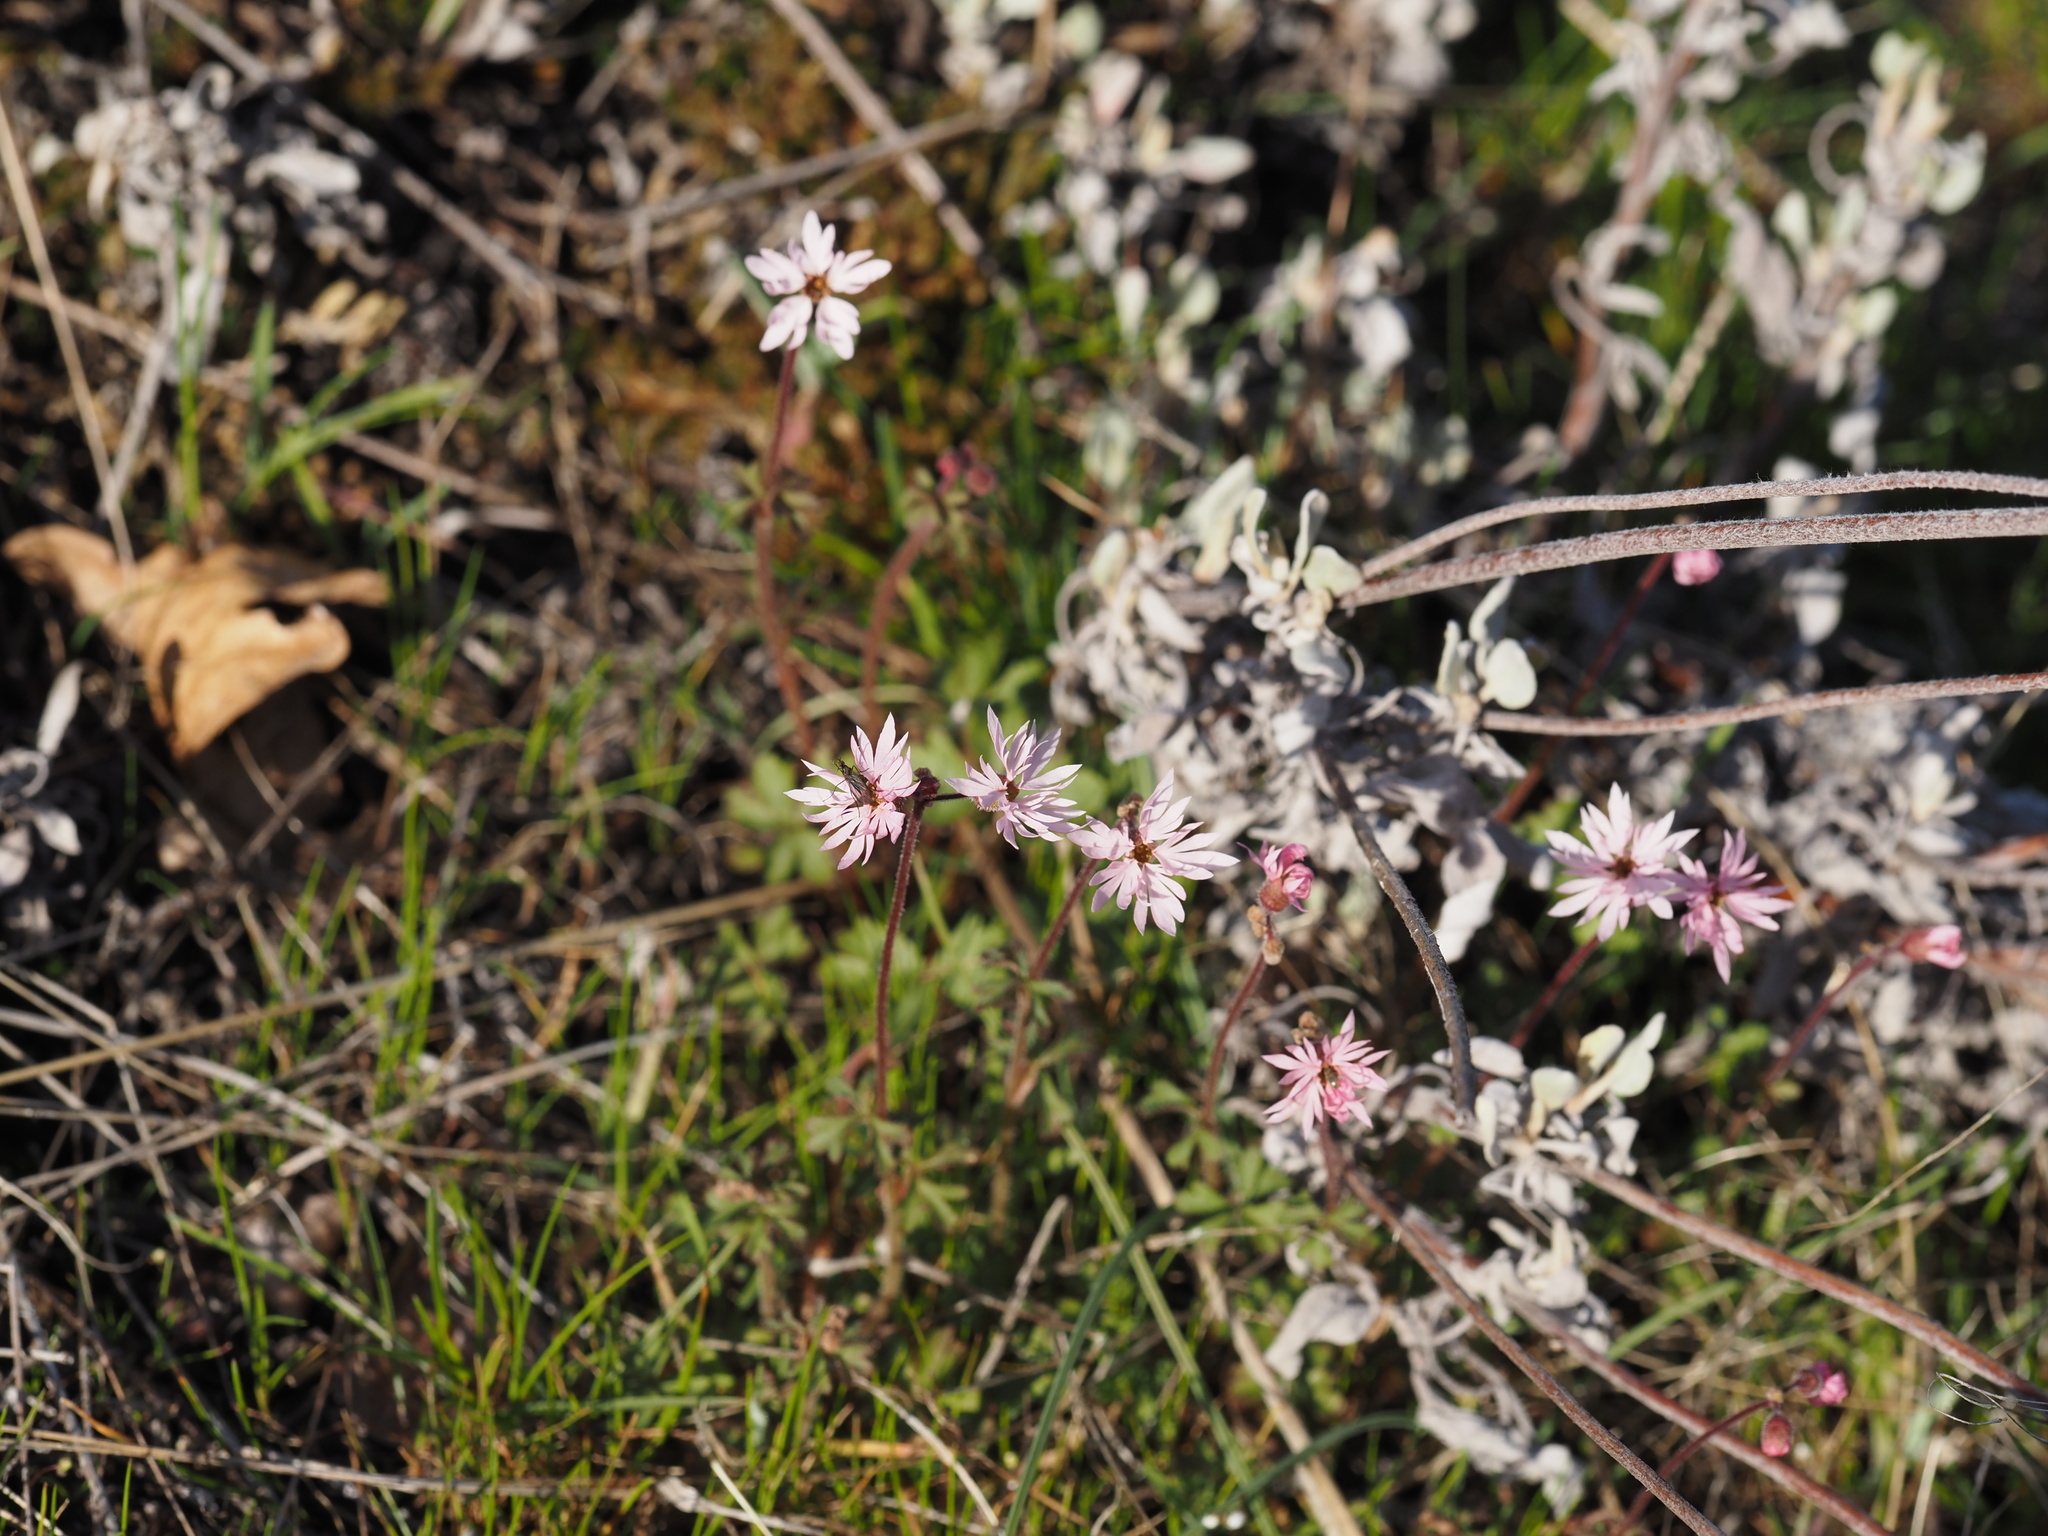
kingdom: Plantae
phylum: Tracheophyta
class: Magnoliopsida
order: Saxifragales
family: Saxifragaceae
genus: Lithophragma
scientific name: Lithophragma glabrum
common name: Bulbous prairie-star
